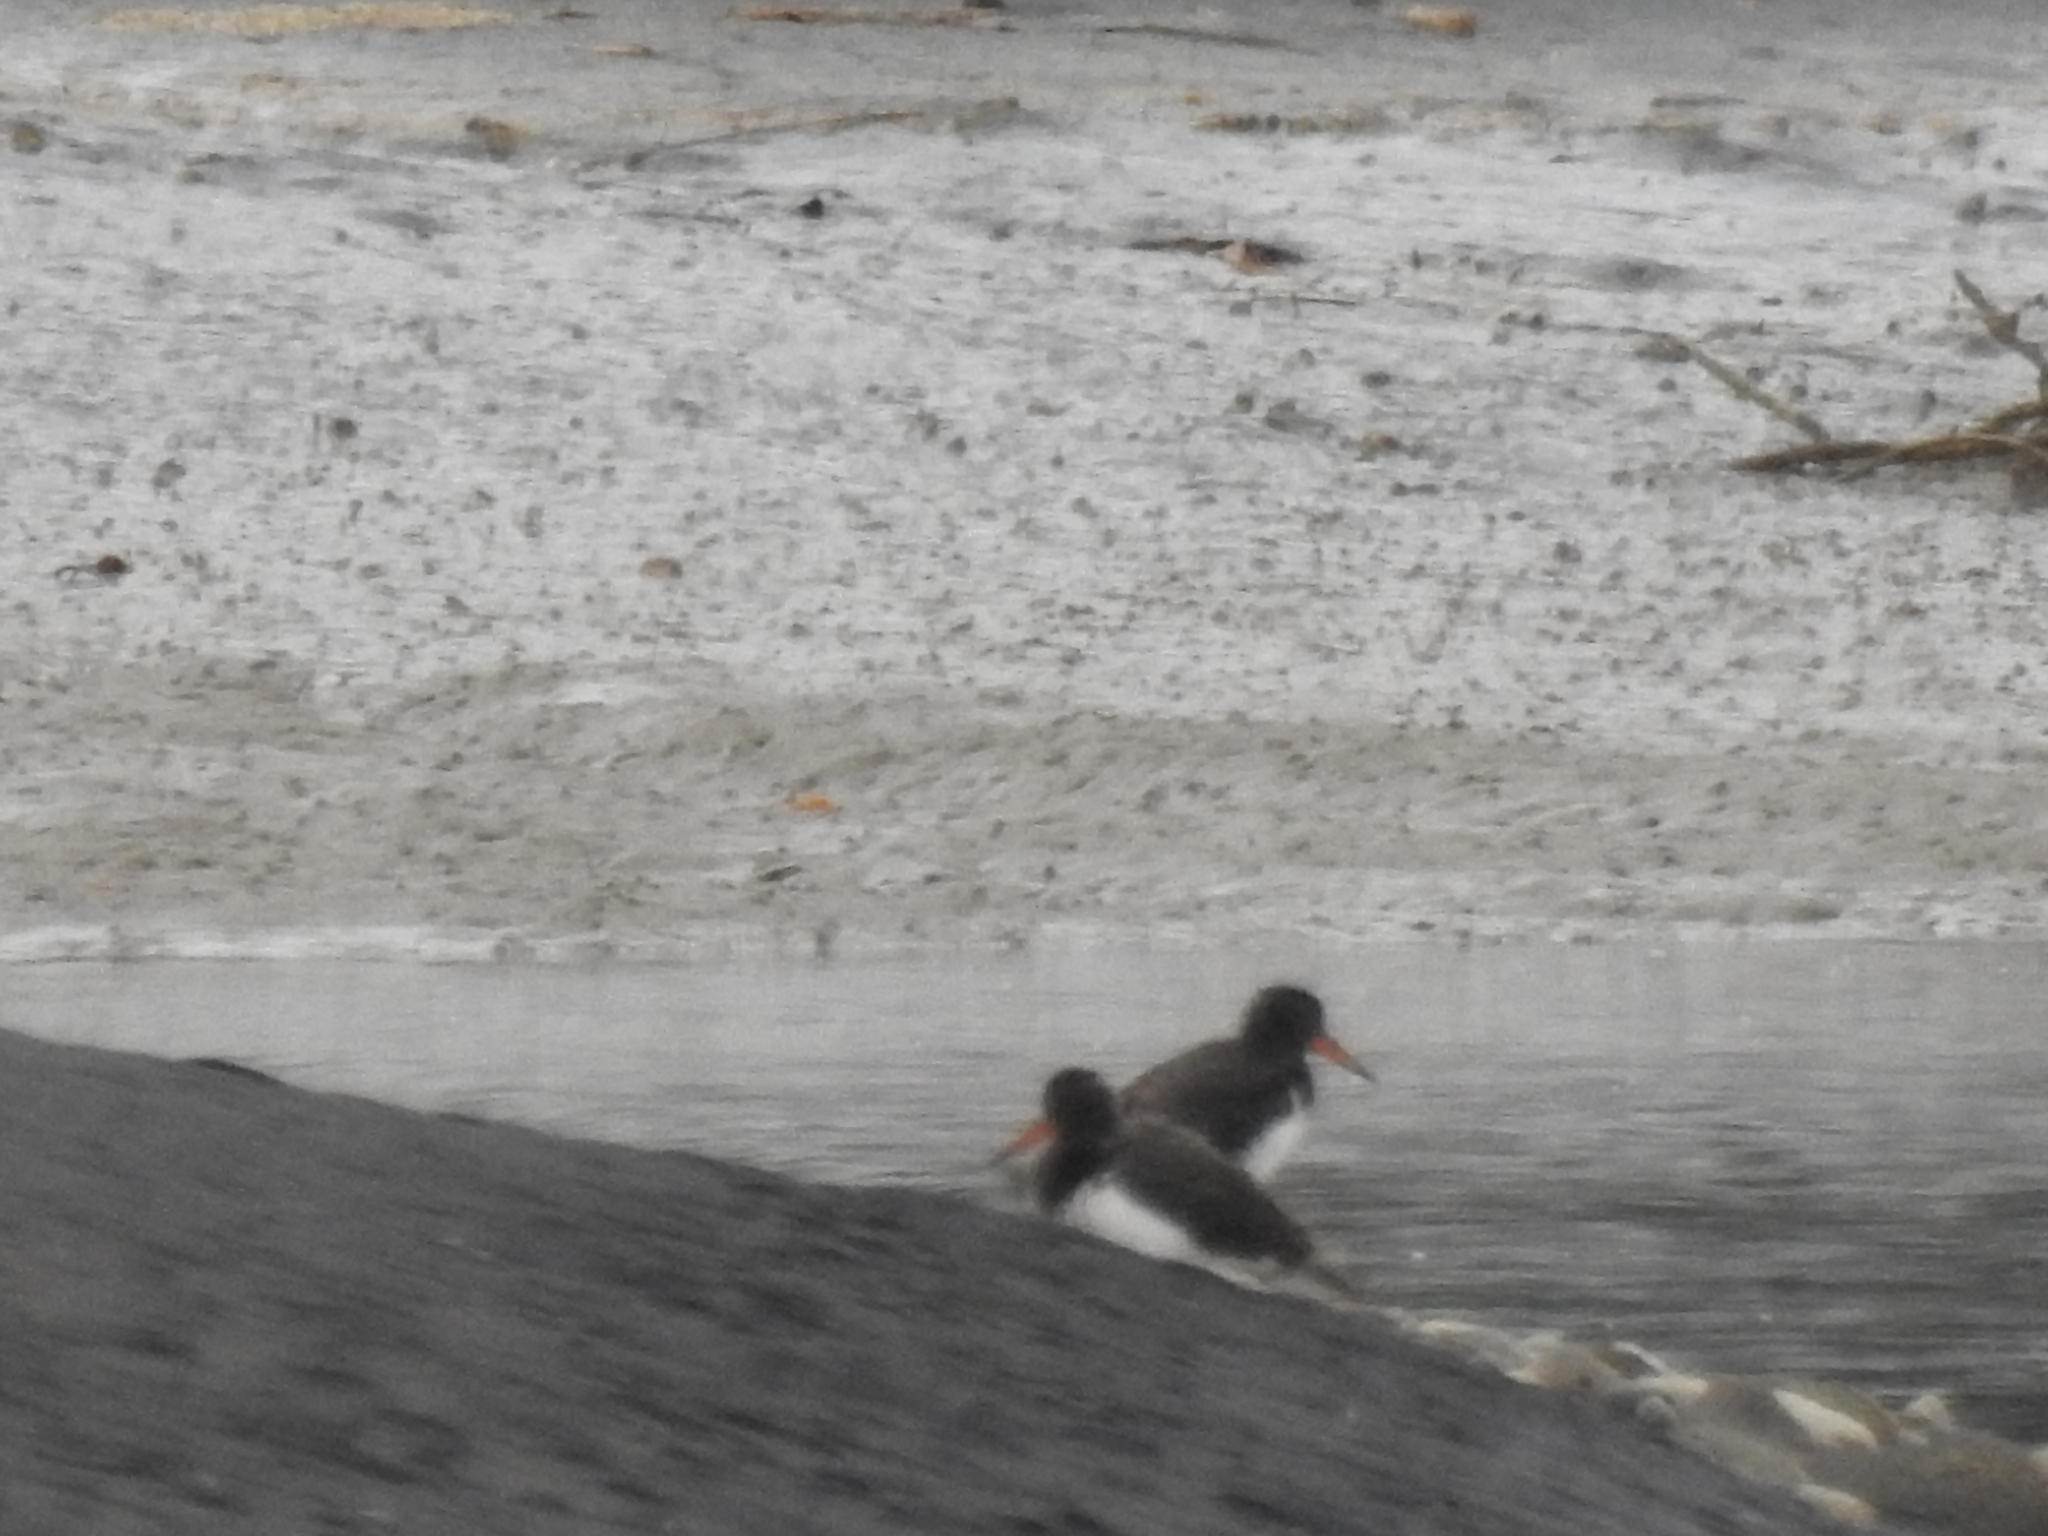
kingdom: Animalia
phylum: Chordata
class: Aves
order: Charadriiformes
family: Haematopodidae
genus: Haematopus
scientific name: Haematopus unicolor
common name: Variable oystercatcher
